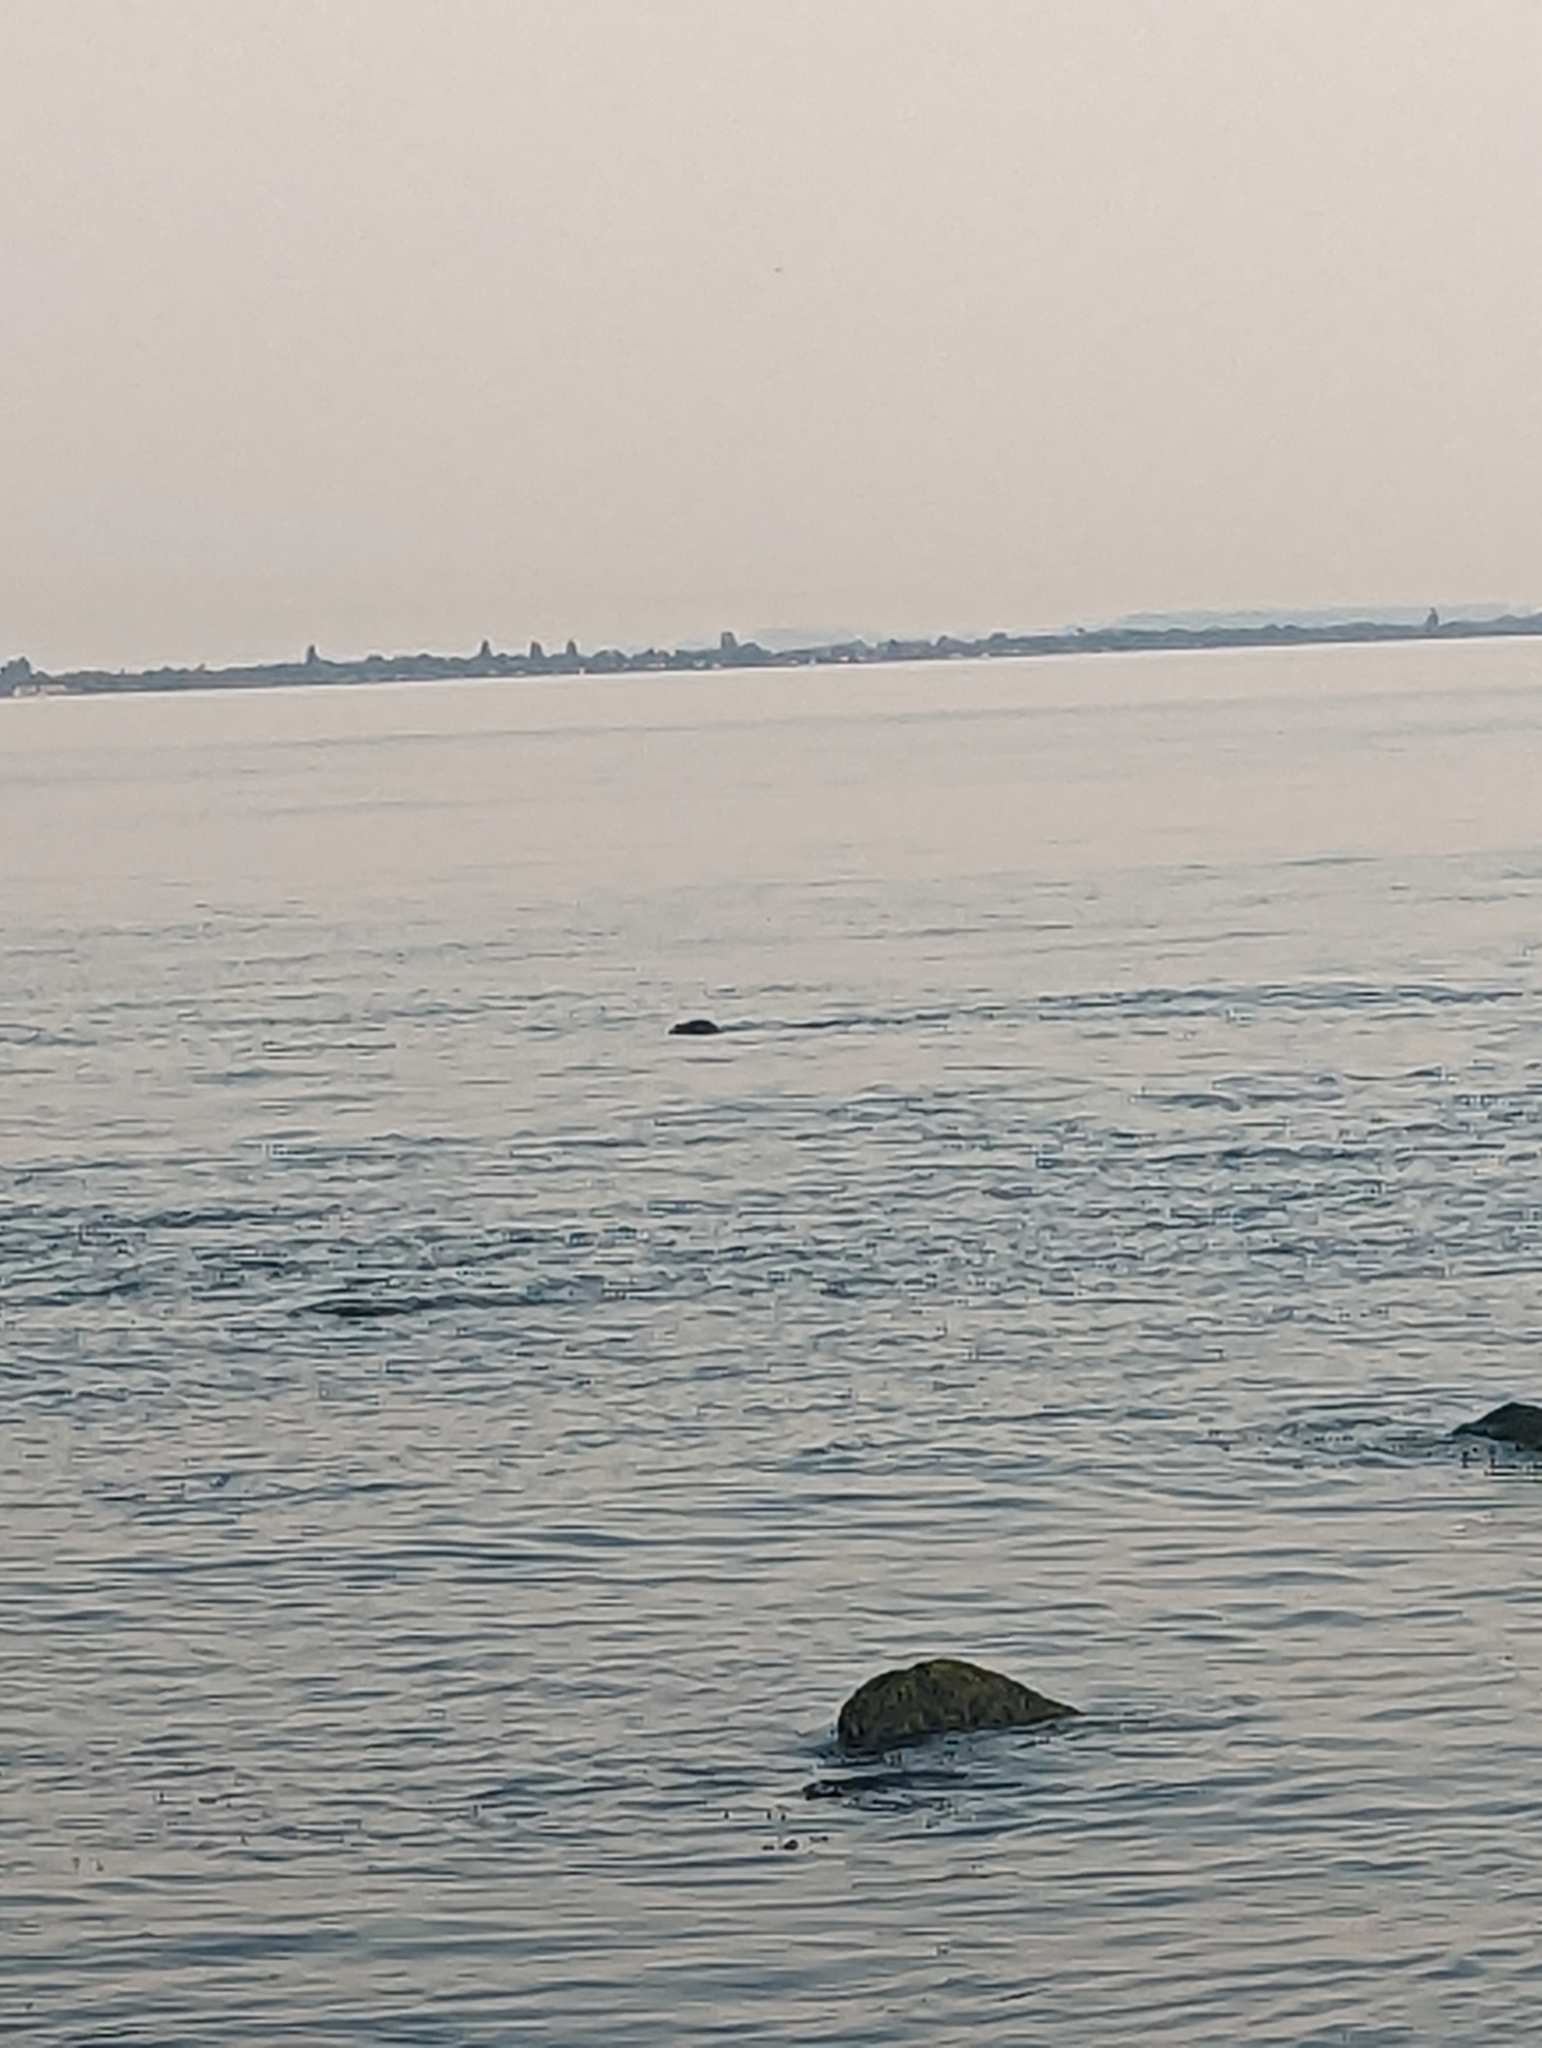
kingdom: Animalia
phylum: Chordata
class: Mammalia
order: Carnivora
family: Phocidae
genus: Phoca
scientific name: Phoca vitulina
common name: Harbor seal
